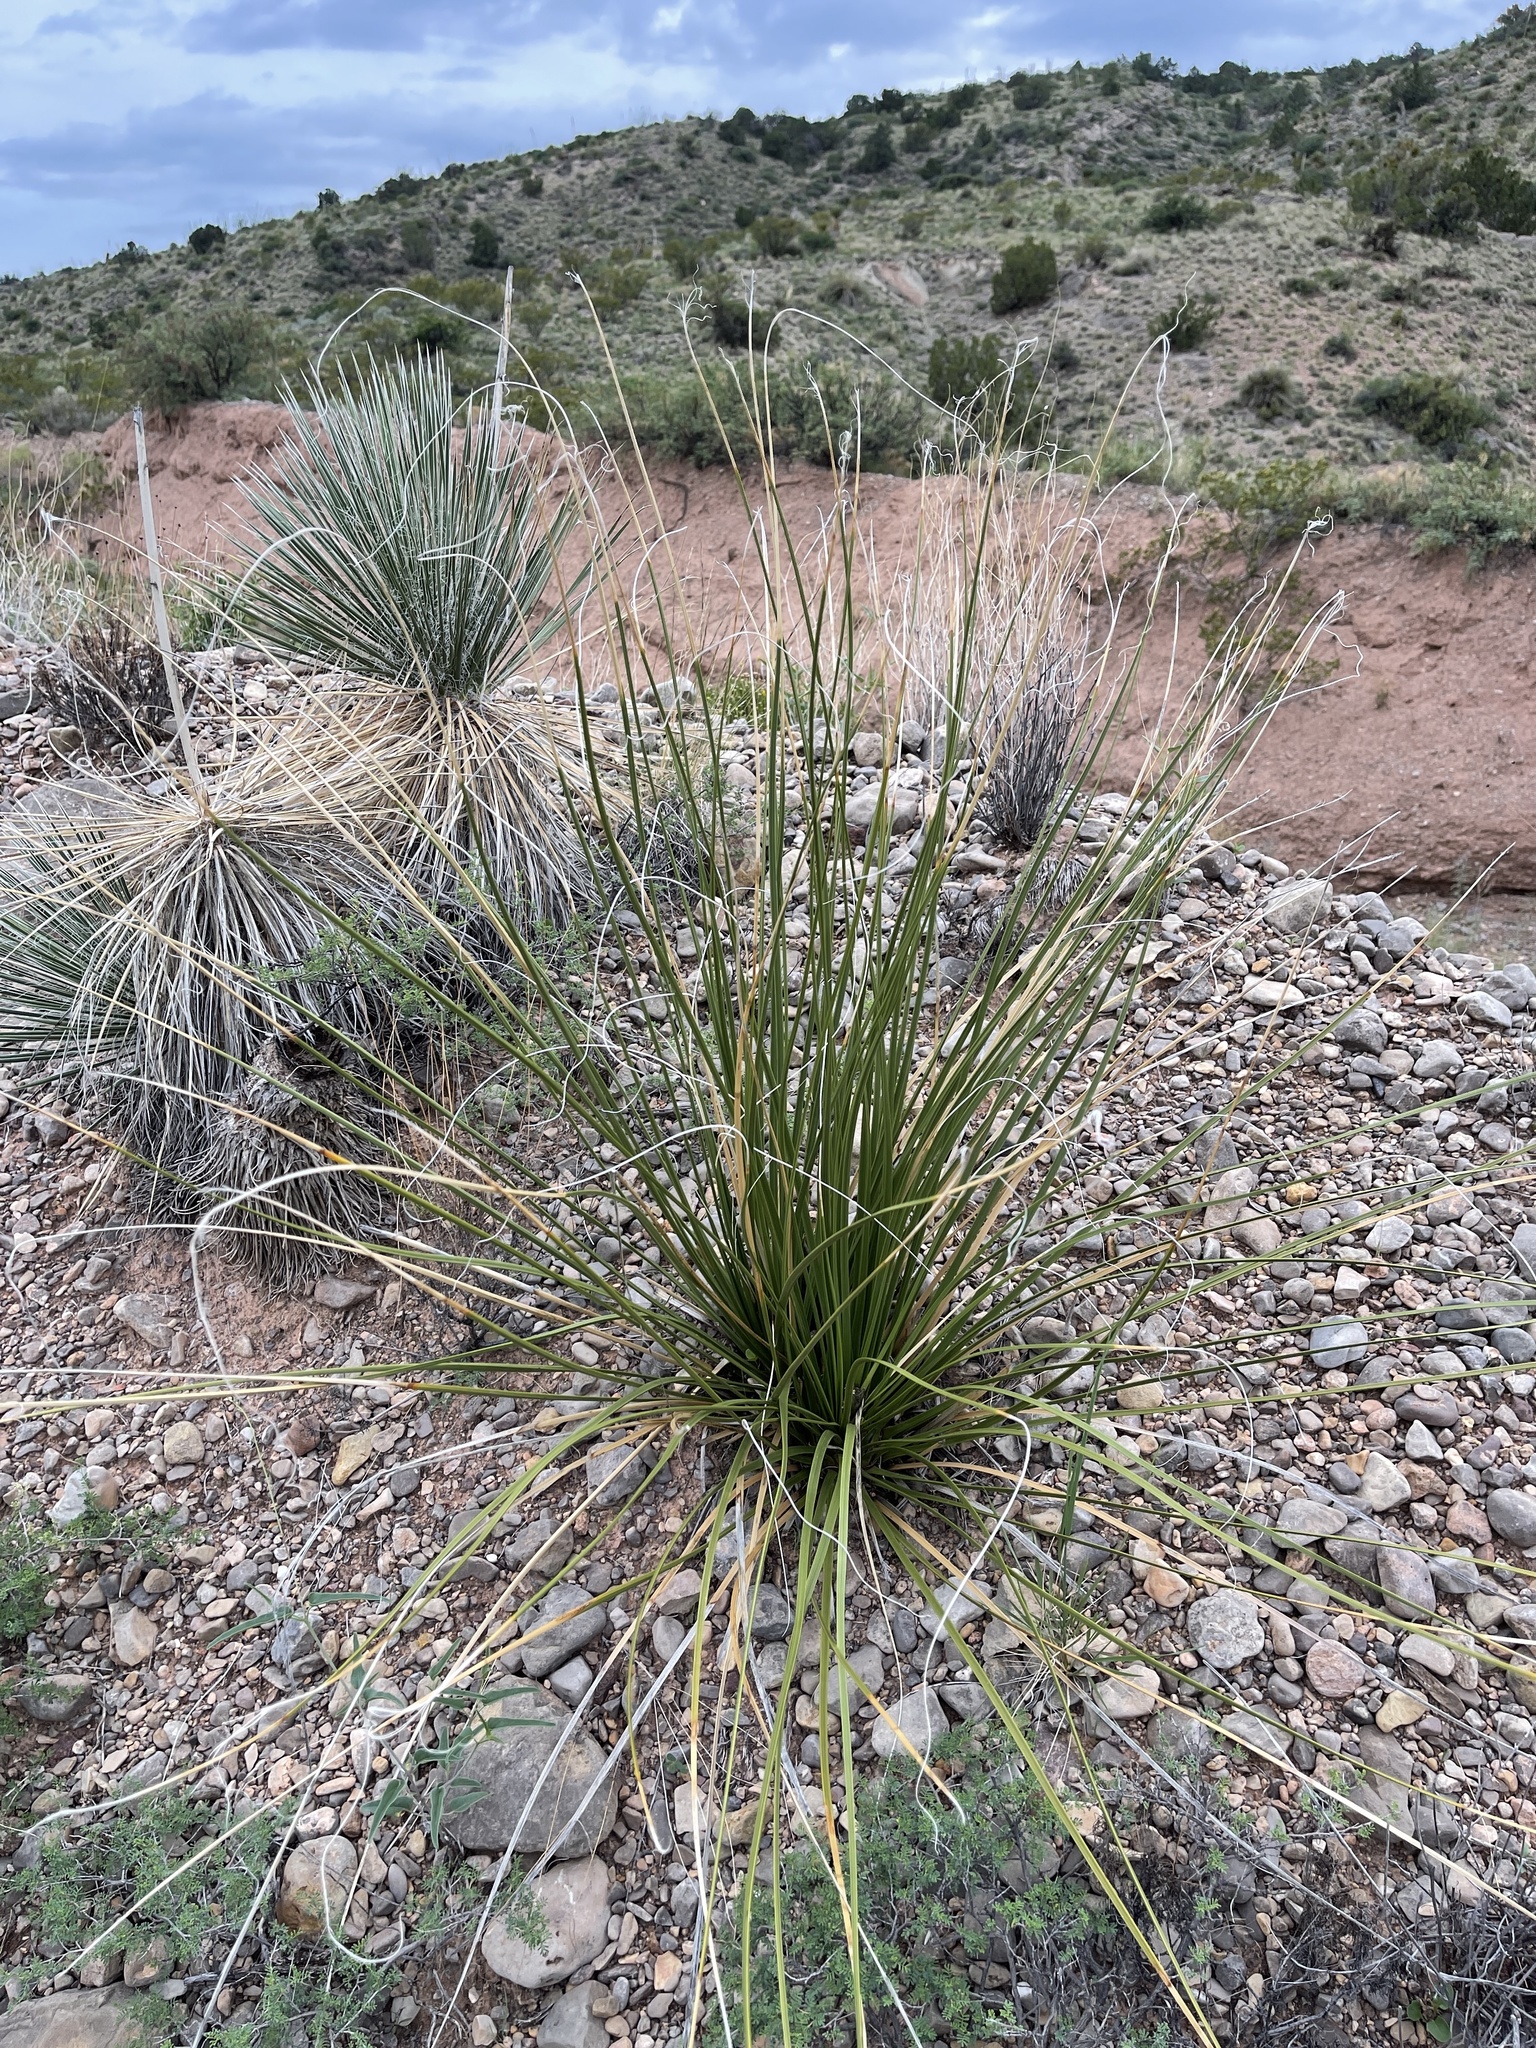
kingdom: Plantae
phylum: Tracheophyta
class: Liliopsida
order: Asparagales
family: Asparagaceae
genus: Nolina
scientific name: Nolina microcarpa
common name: Bear-grass
